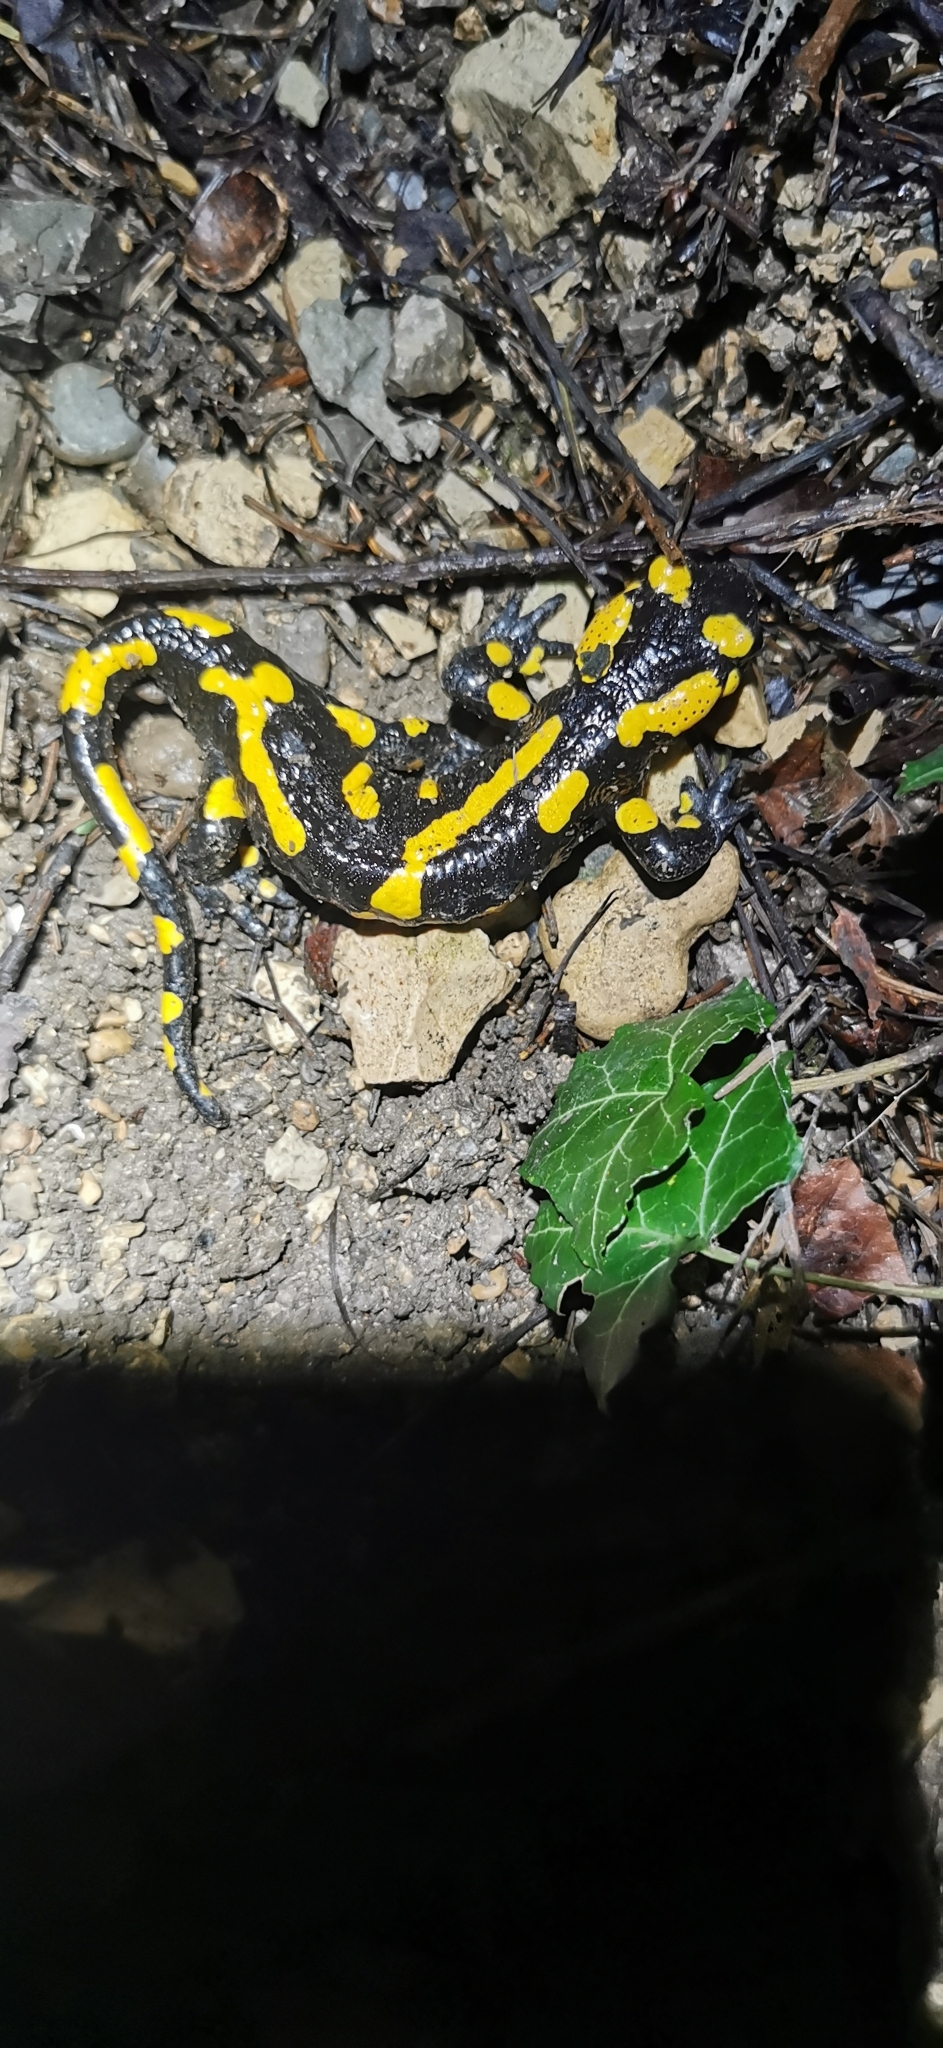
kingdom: Animalia
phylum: Chordata
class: Amphibia
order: Caudata
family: Salamandridae
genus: Salamandra
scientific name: Salamandra salamandra
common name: Fire salamander
